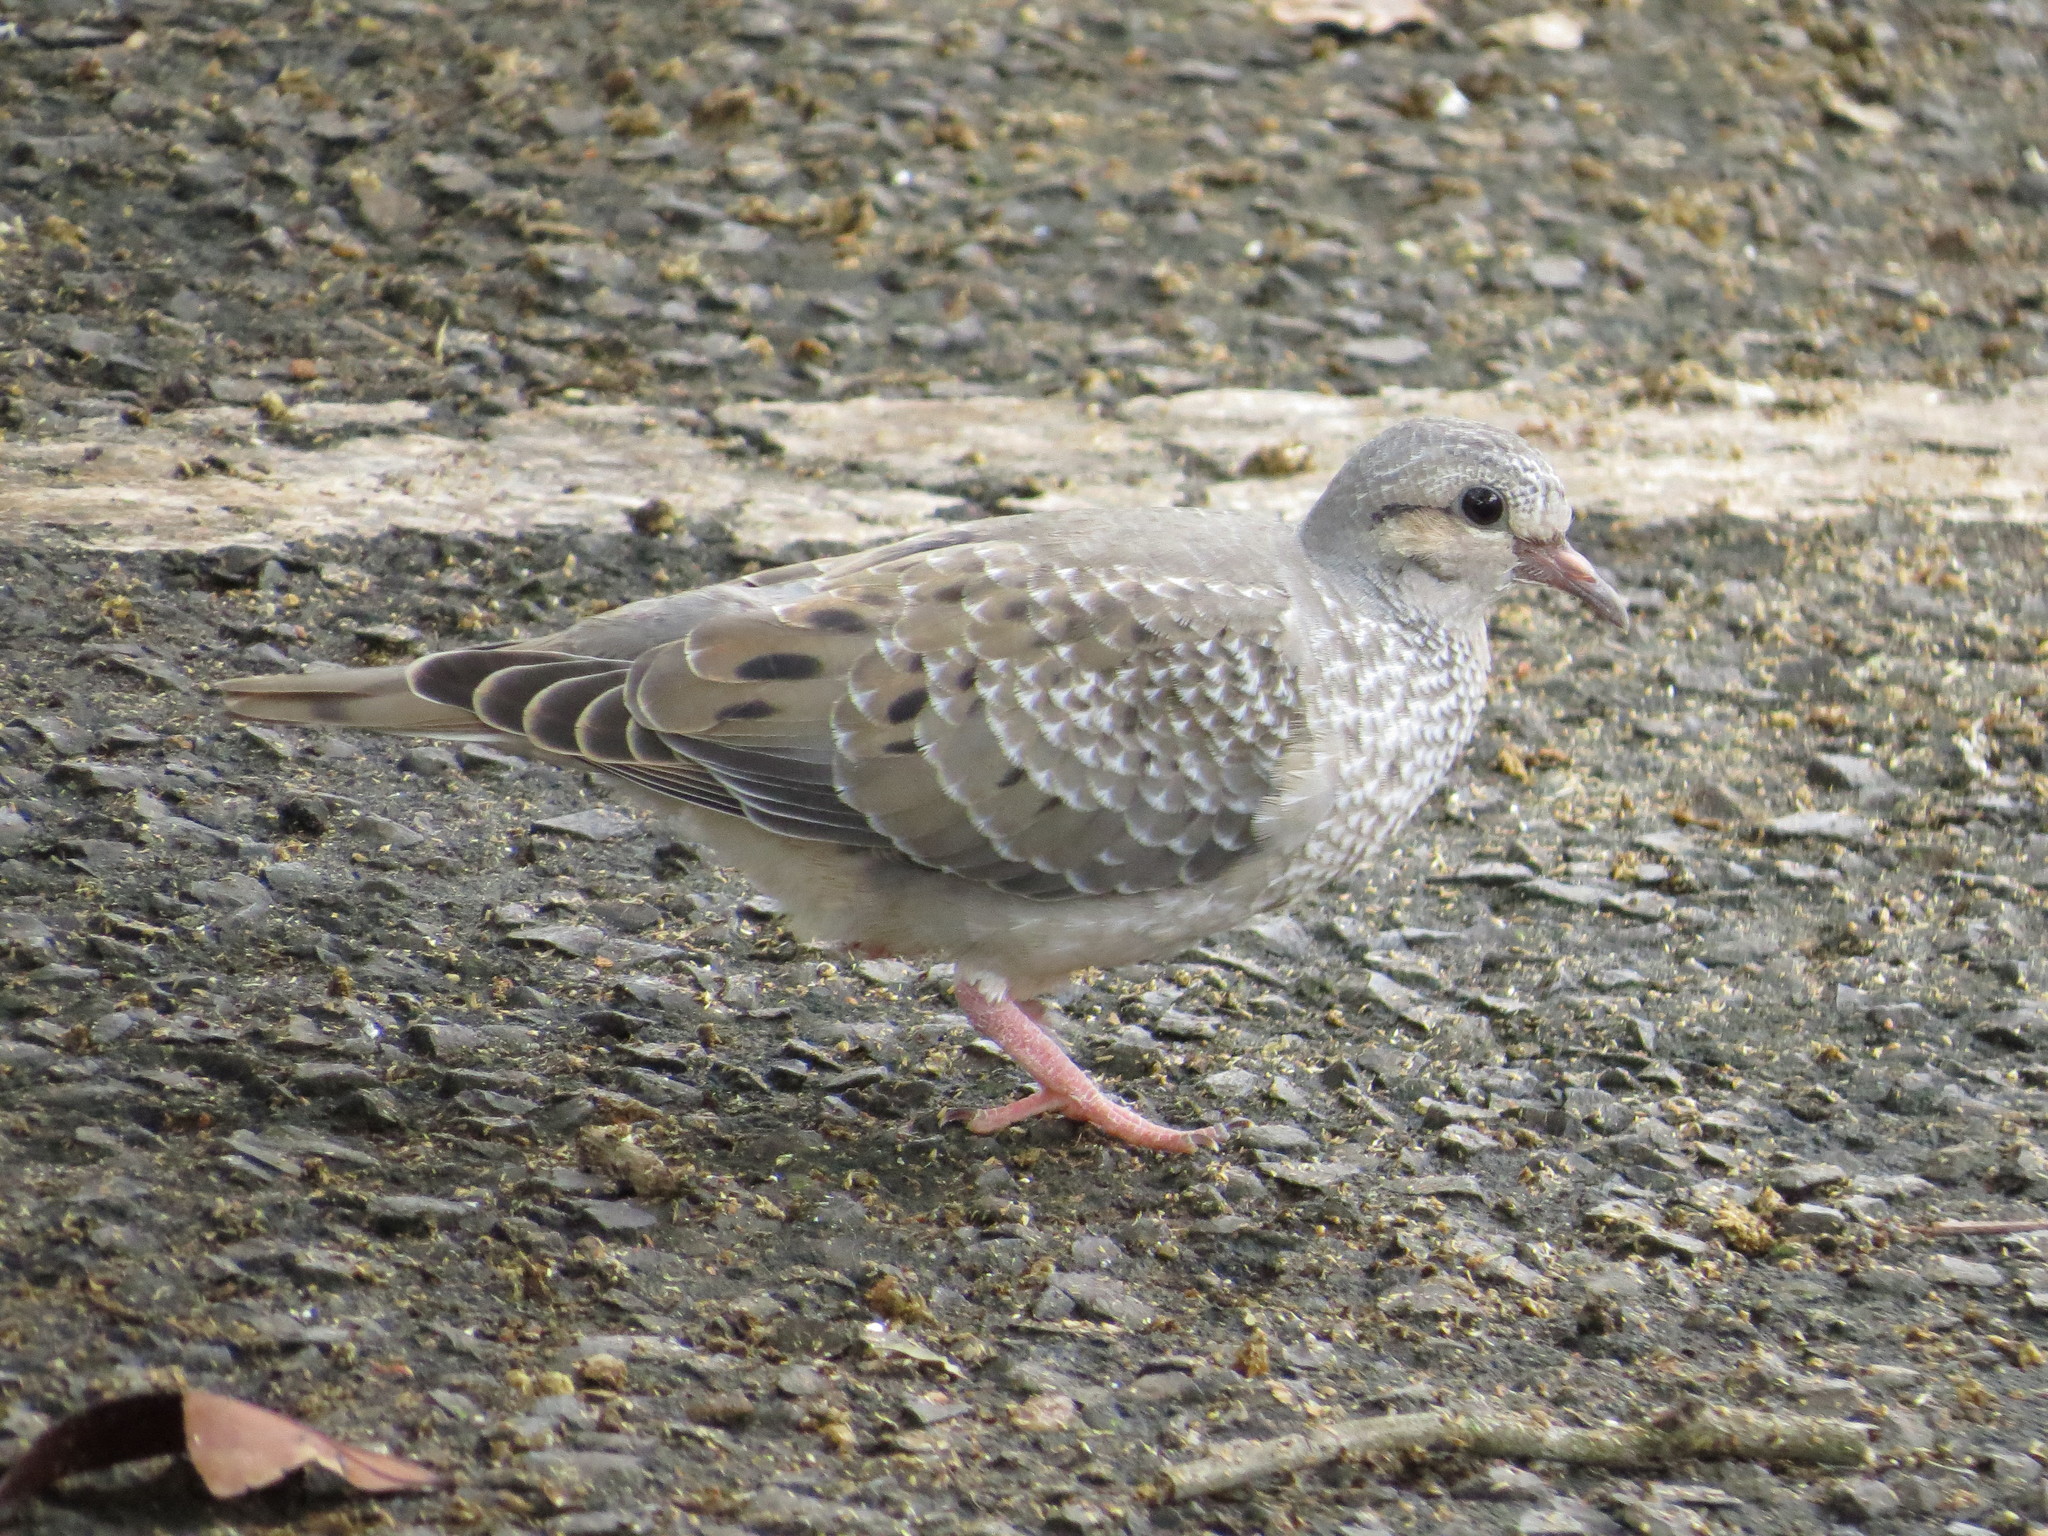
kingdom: Animalia
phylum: Chordata
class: Aves
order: Columbiformes
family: Columbidae
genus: Zenaida
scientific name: Zenaida auriculata
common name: Eared dove
